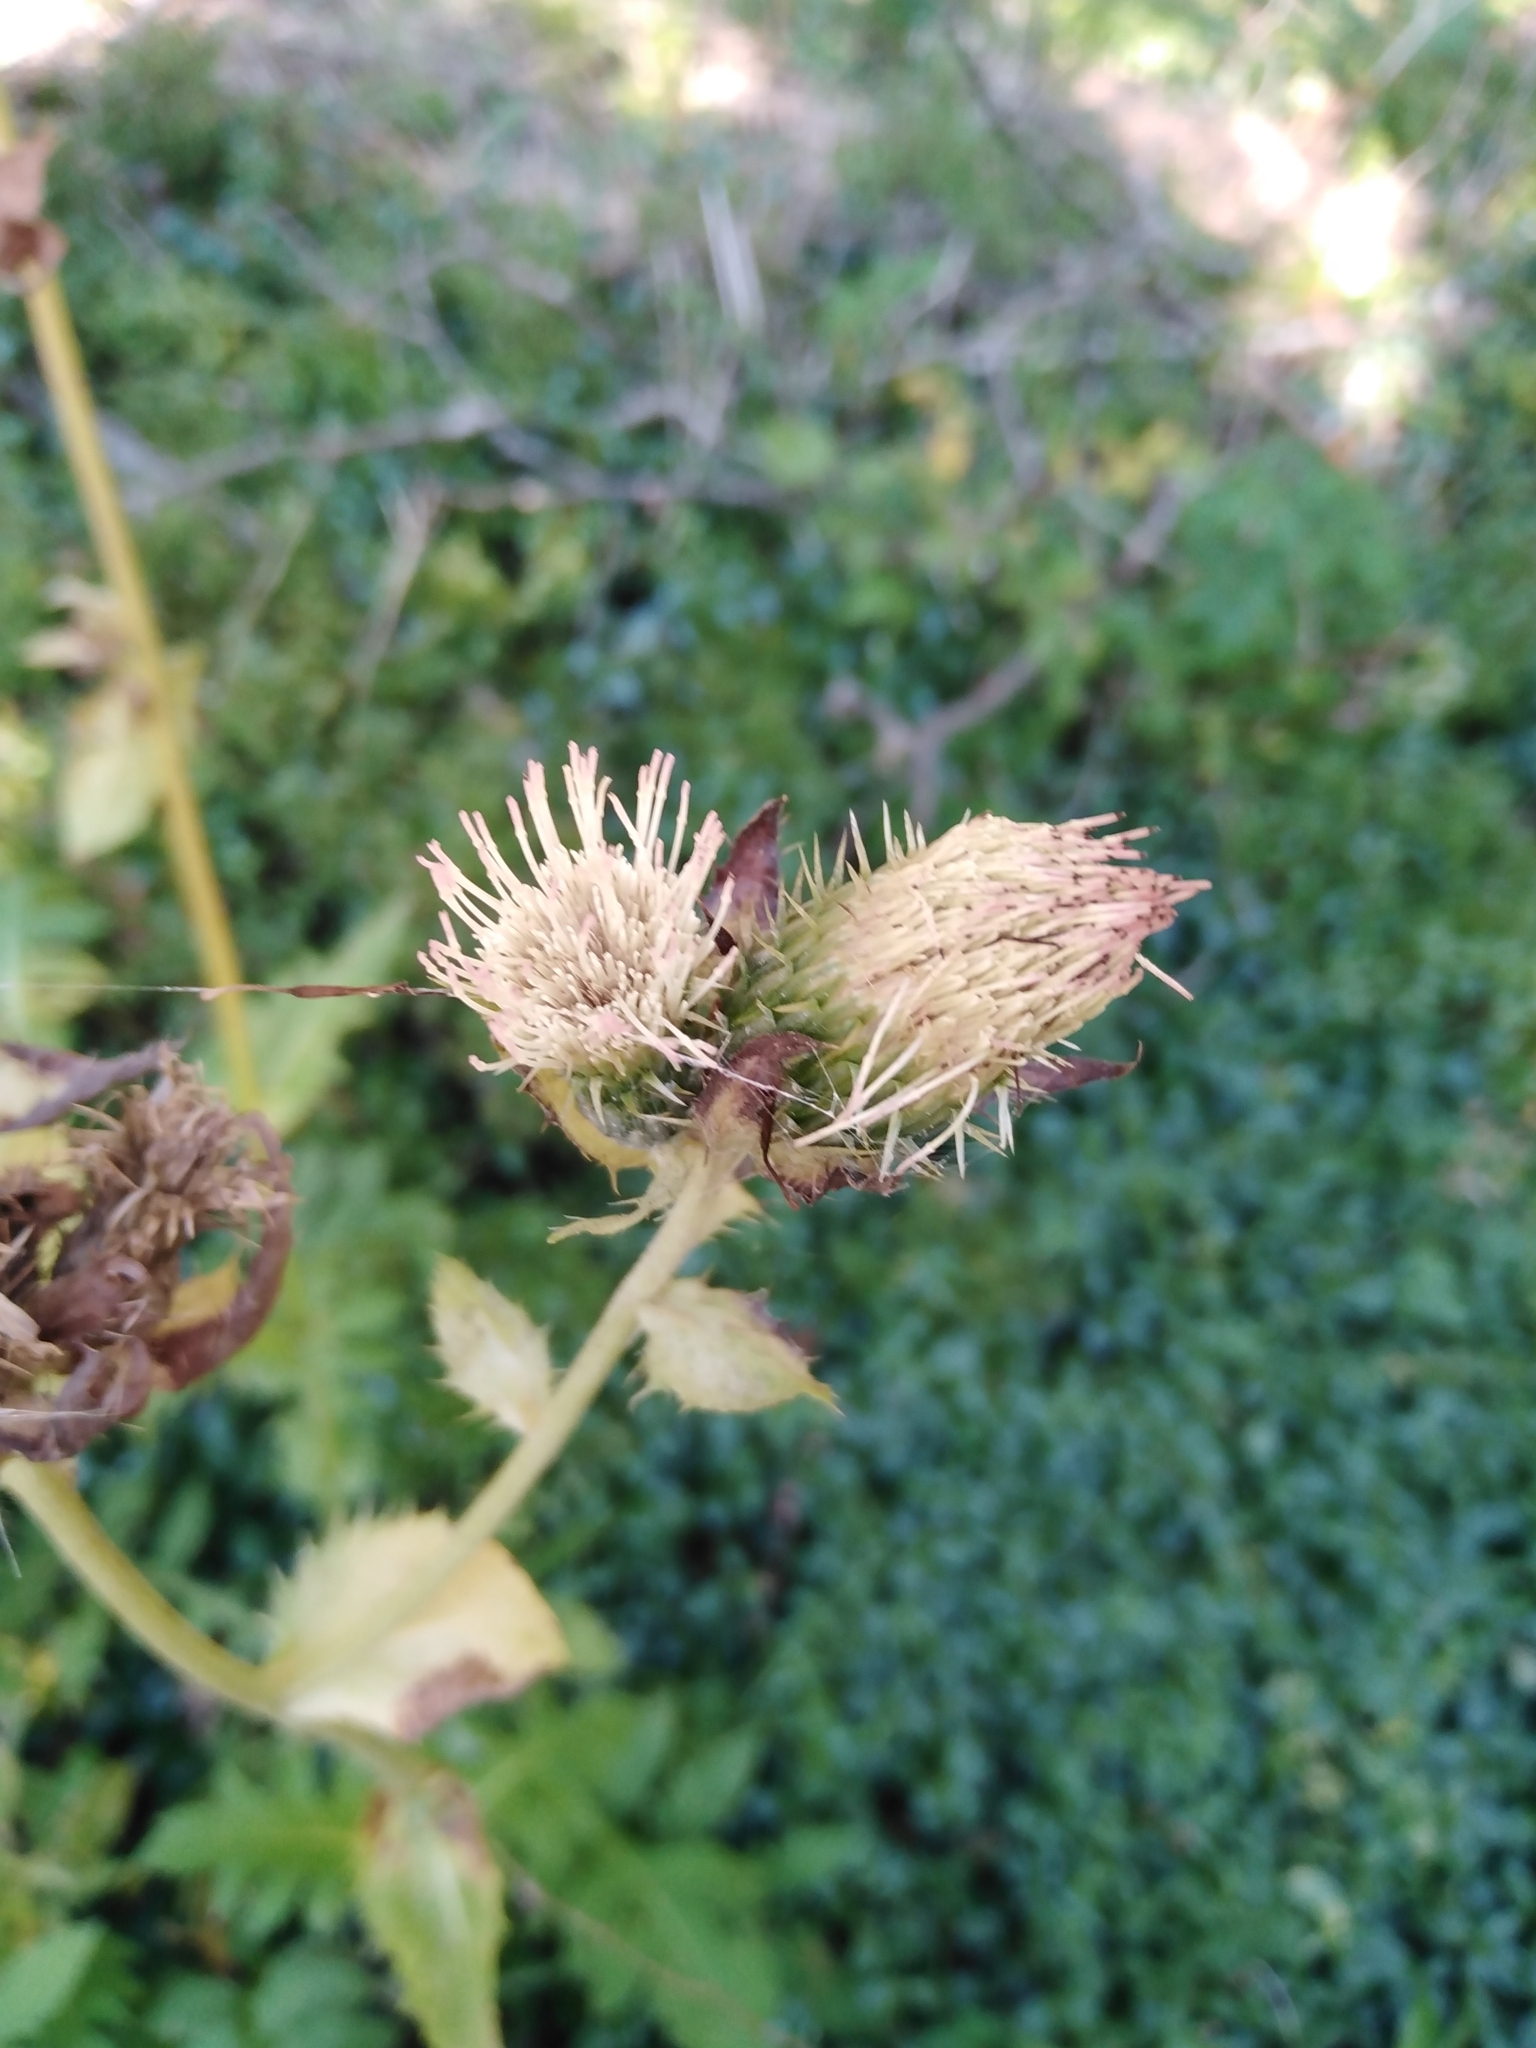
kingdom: Plantae
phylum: Tracheophyta
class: Magnoliopsida
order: Asterales
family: Asteraceae
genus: Cirsium
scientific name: Cirsium oleraceum
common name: Cabbage thistle
